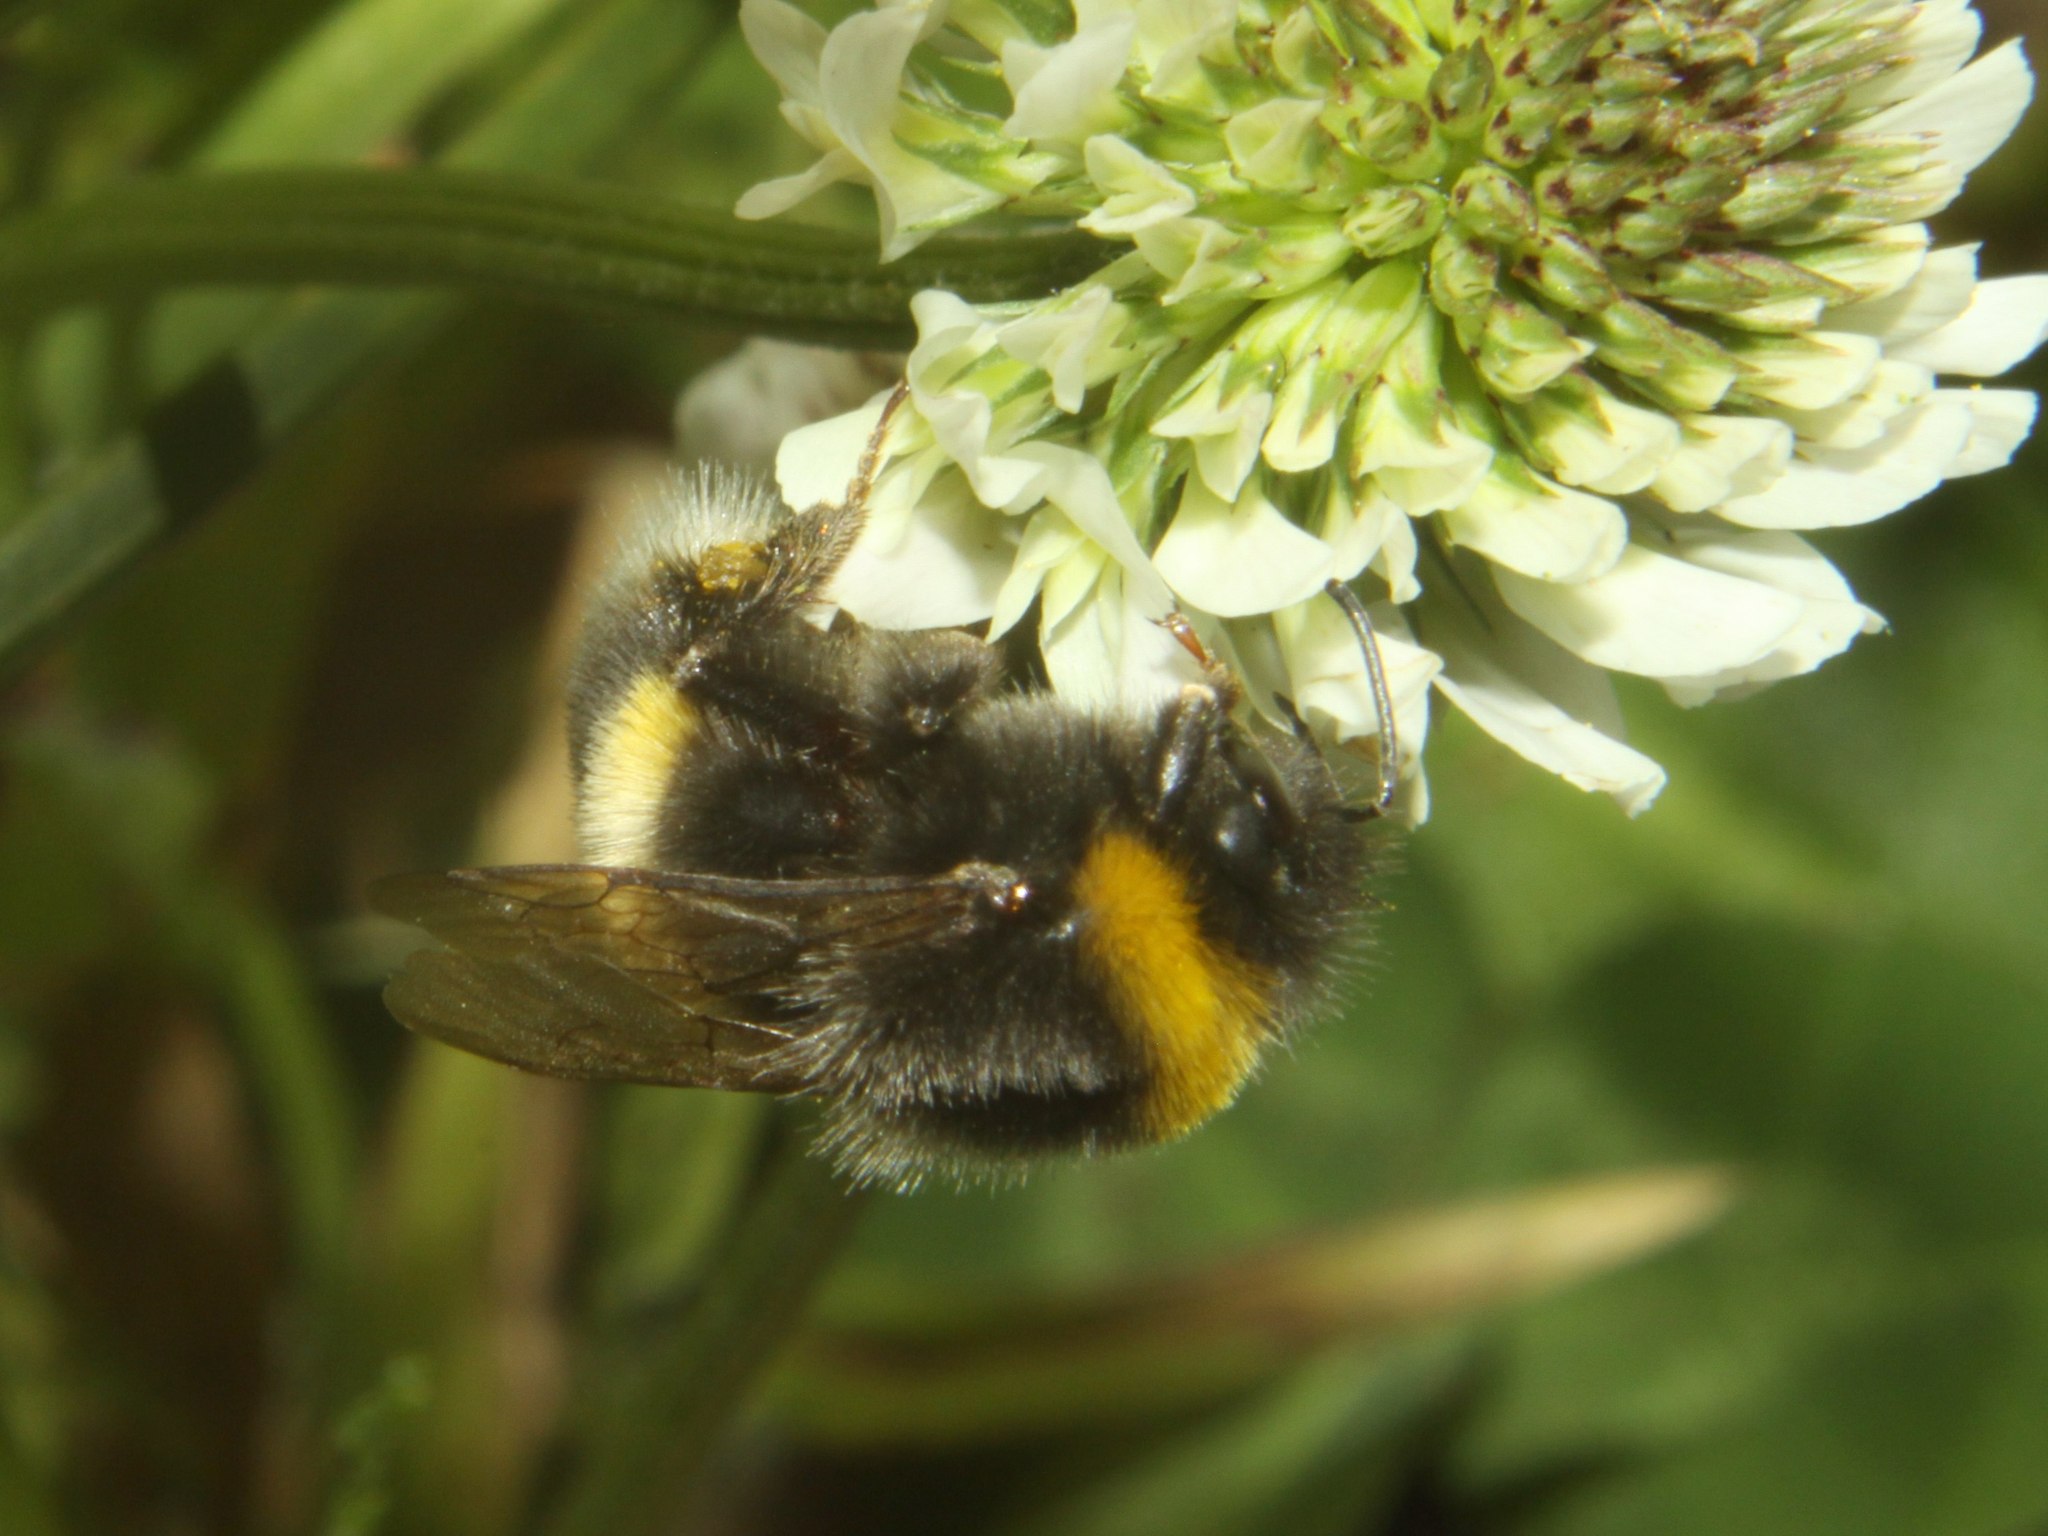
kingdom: Animalia
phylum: Arthropoda
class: Insecta
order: Hymenoptera
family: Apidae
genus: Bombus
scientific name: Bombus terrestris
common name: Buff-tailed bumblebee
